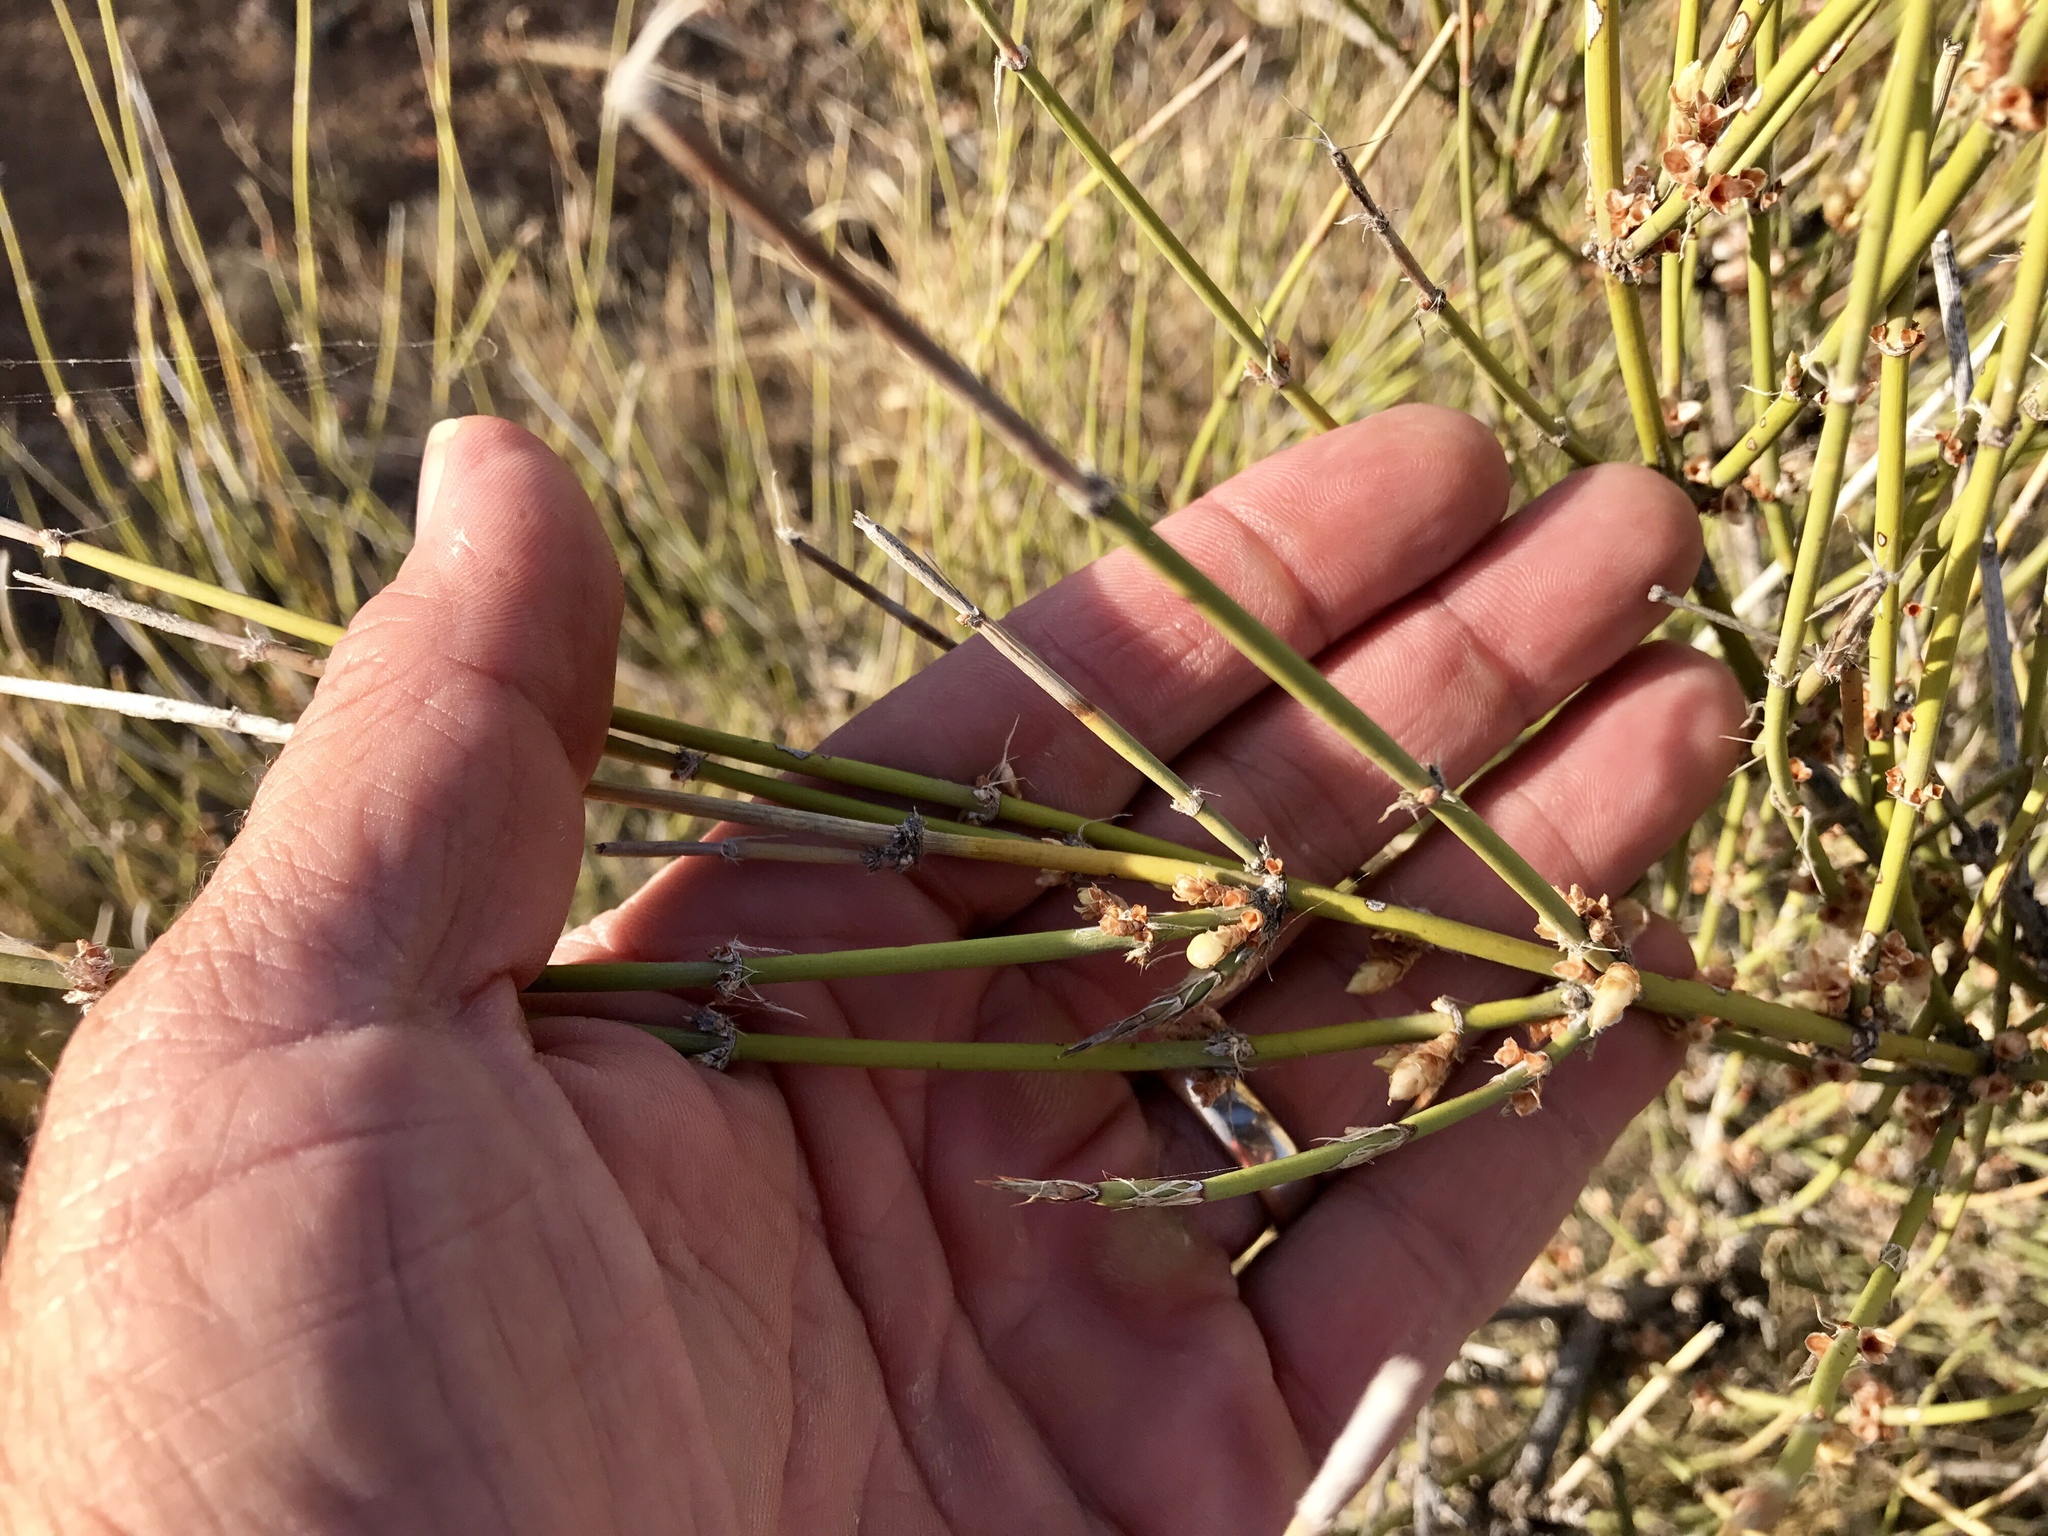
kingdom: Plantae
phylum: Tracheophyta
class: Gnetopsida
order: Ephedrales
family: Ephedraceae
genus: Ephedra
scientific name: Ephedra trifurca
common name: Mexican-tea
